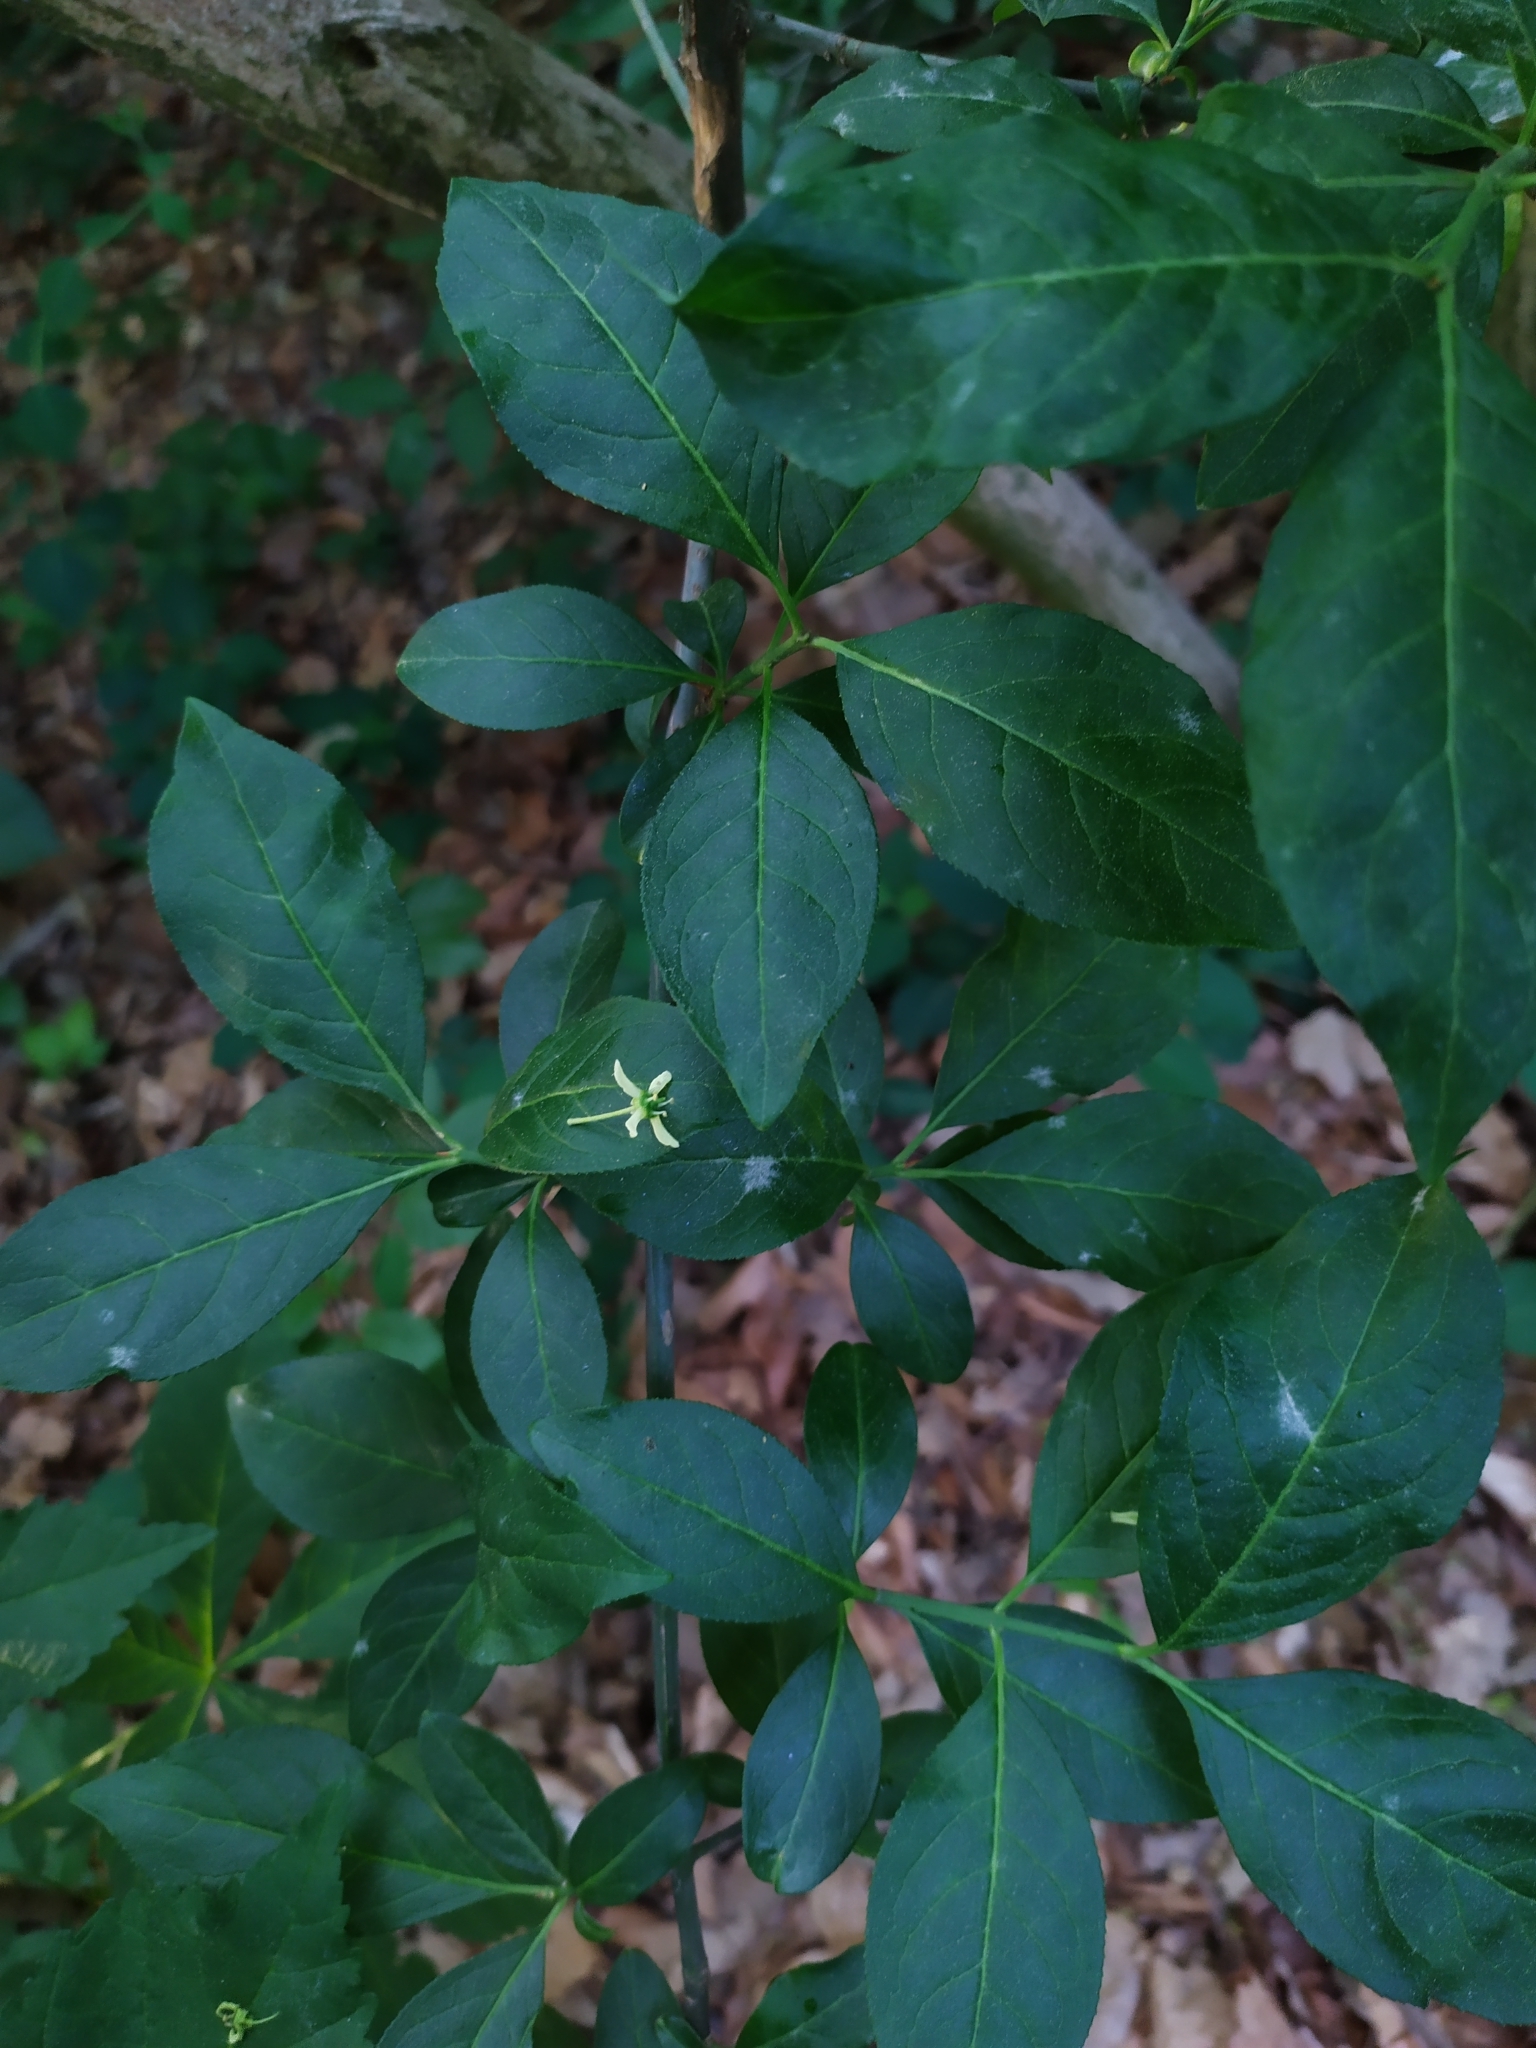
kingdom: Fungi
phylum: Ascomycota
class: Leotiomycetes
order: Helotiales
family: Erysiphaceae
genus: Erysiphe
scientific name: Erysiphe euonymi
